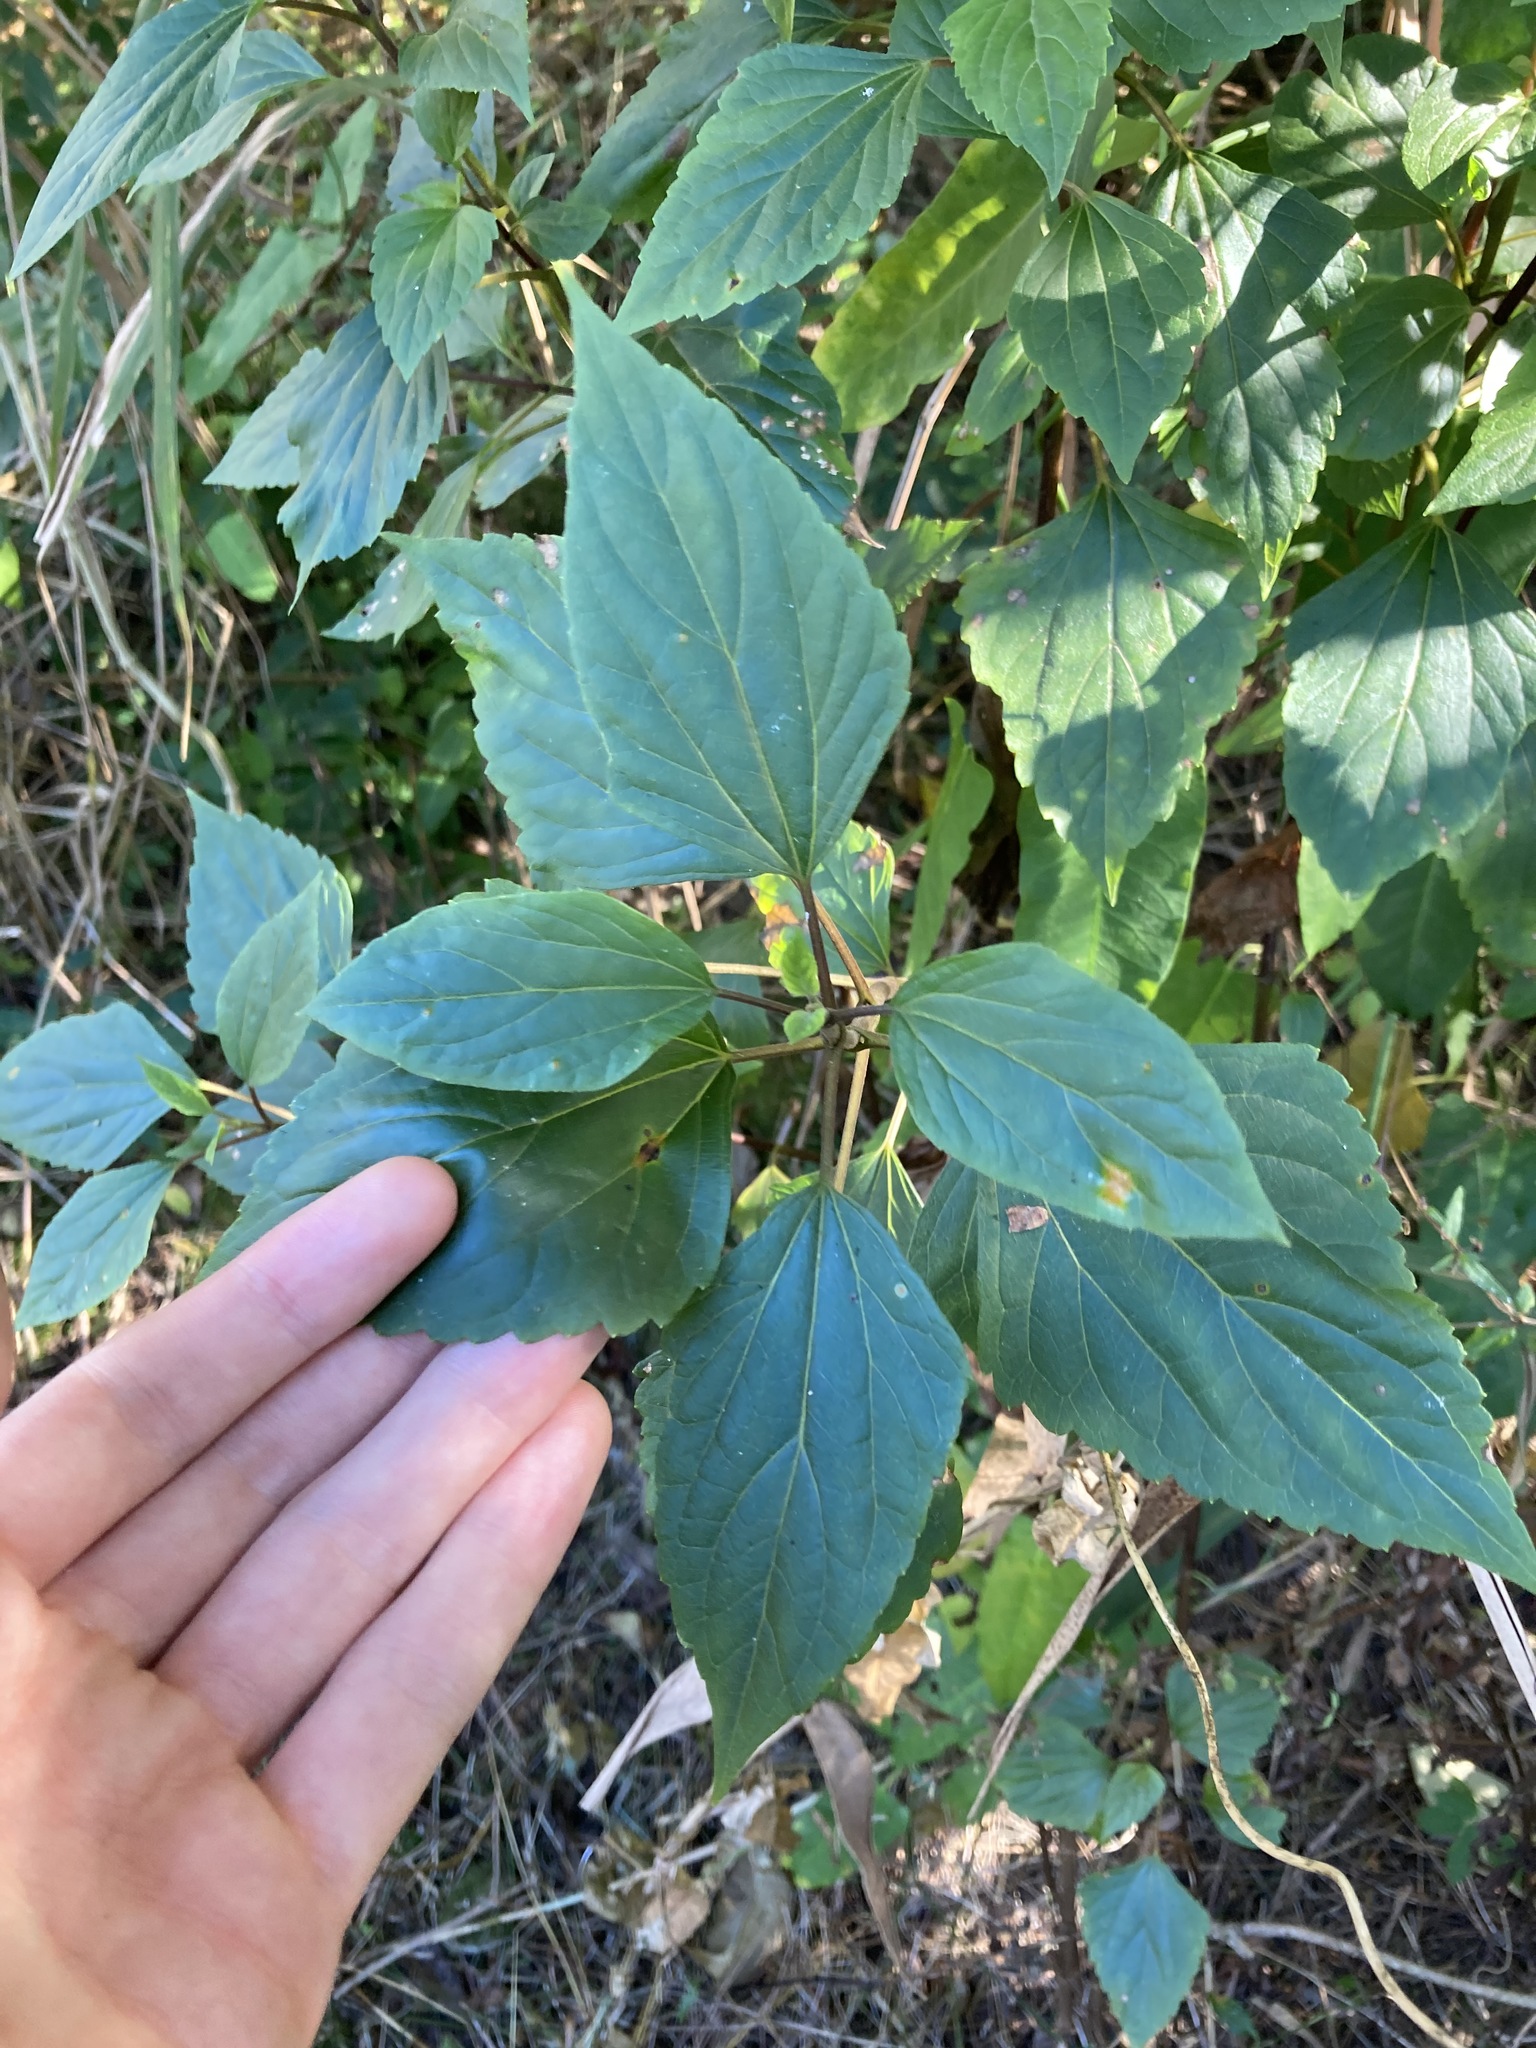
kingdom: Plantae
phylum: Tracheophyta
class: Magnoliopsida
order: Asterales
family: Asteraceae
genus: Ageratina
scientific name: Ageratina adenophora
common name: Sticky snakeroot
